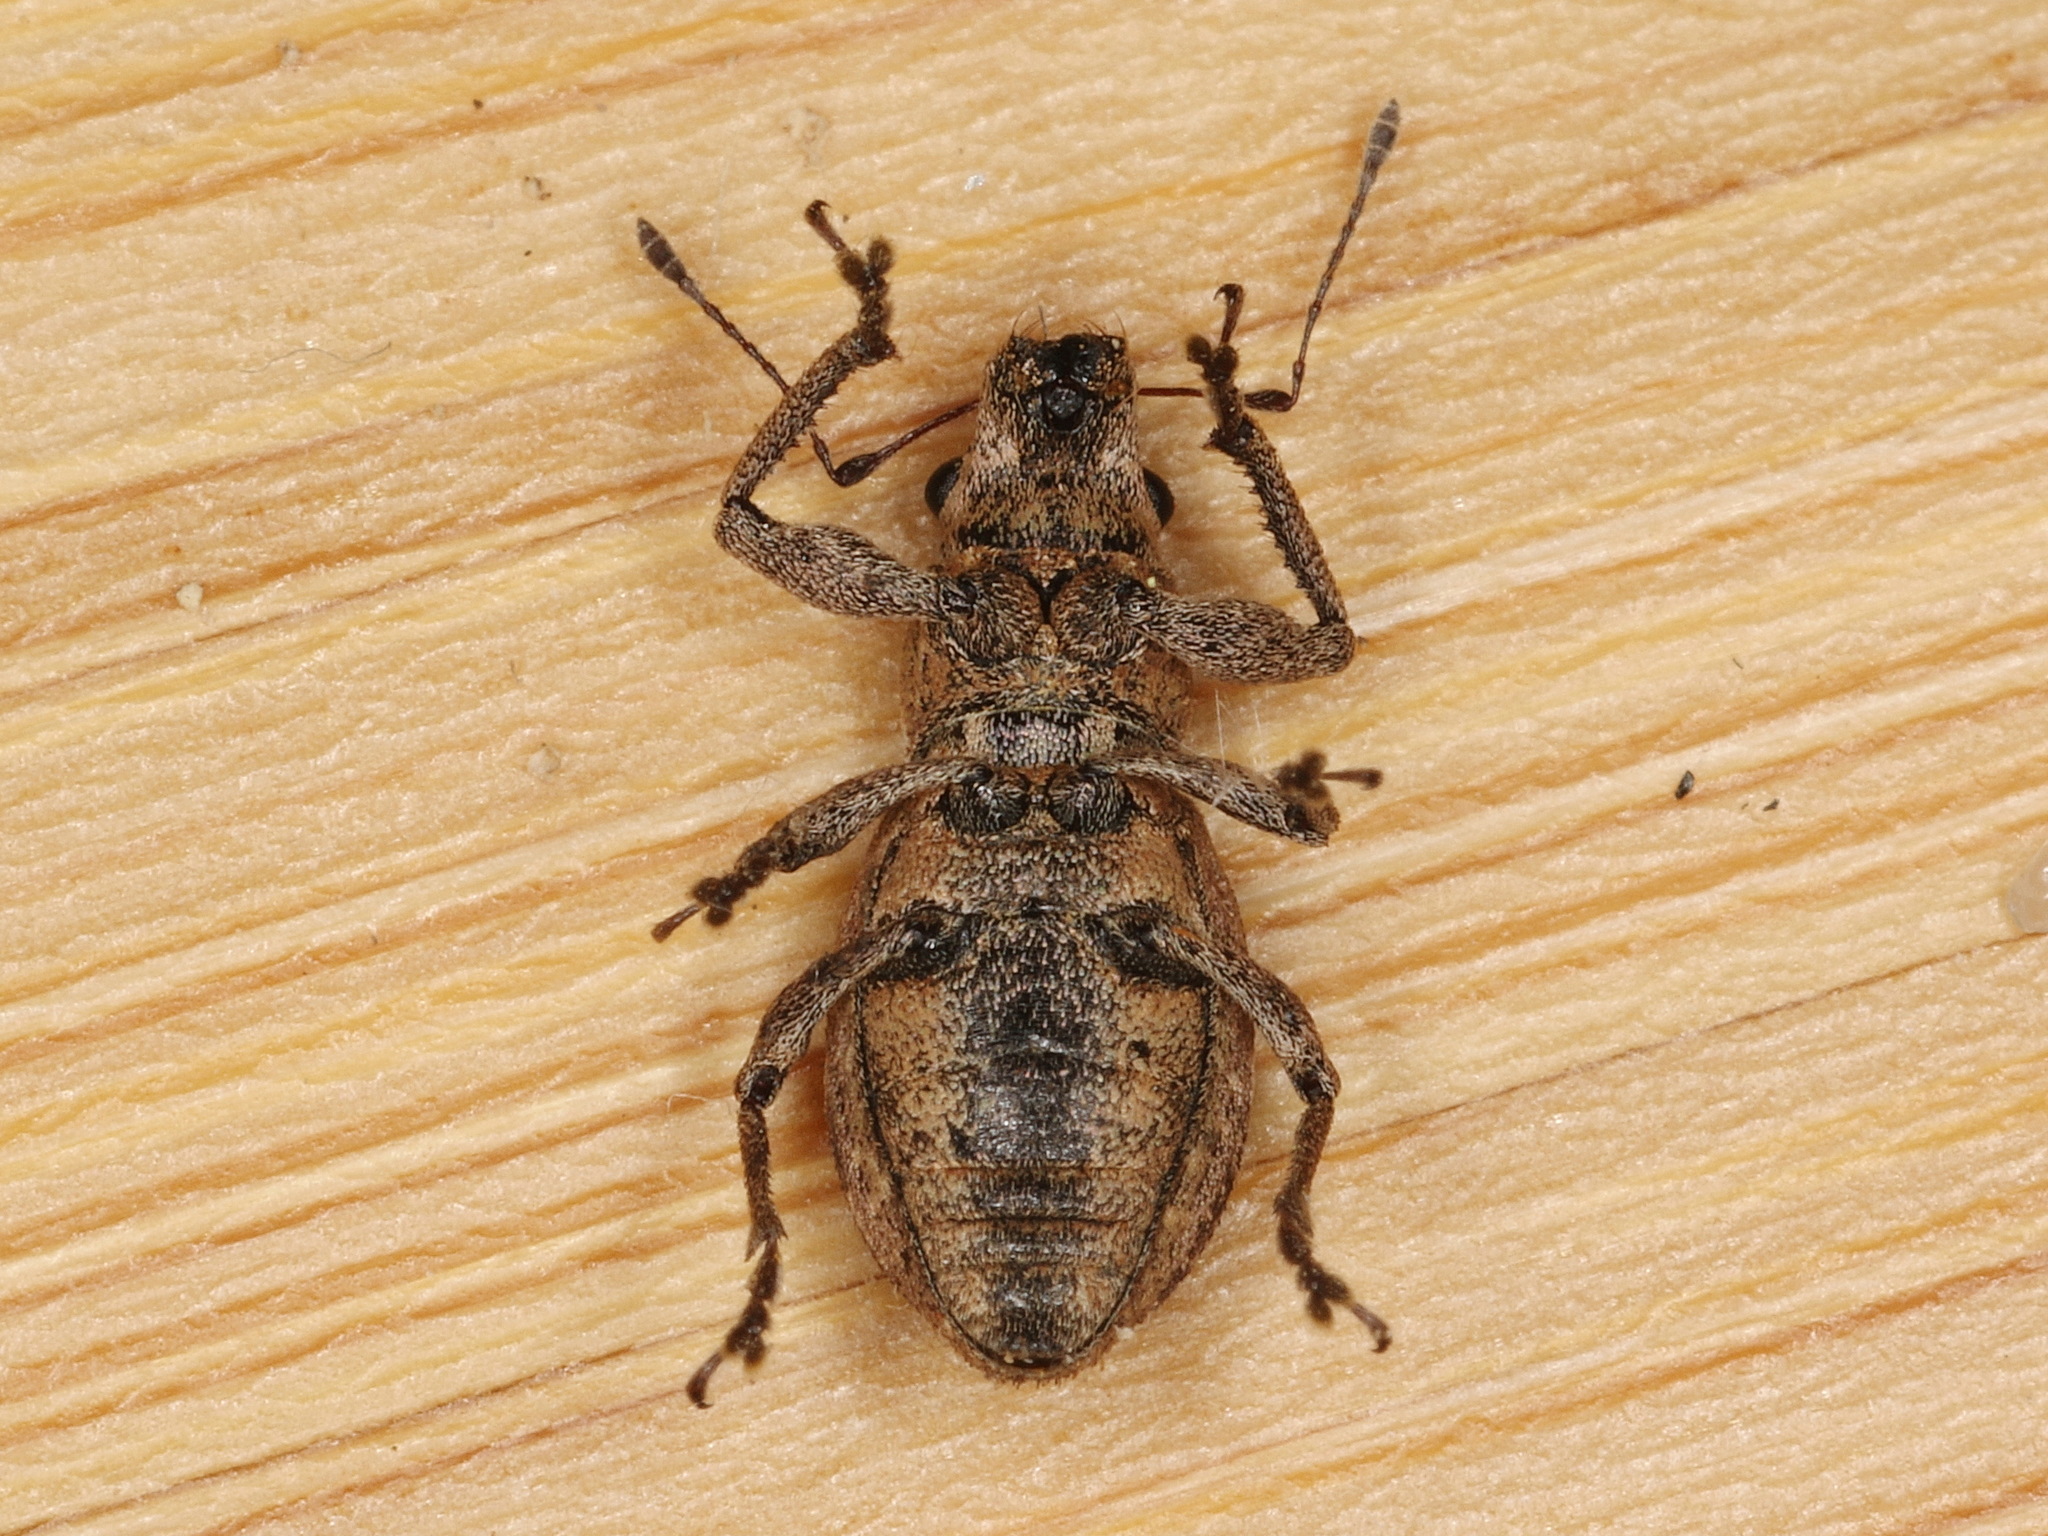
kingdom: Animalia
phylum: Arthropoda
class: Insecta
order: Coleoptera
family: Curculionidae
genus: Naupactus
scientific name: Naupactus cervinus
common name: Fuller rose beetle
